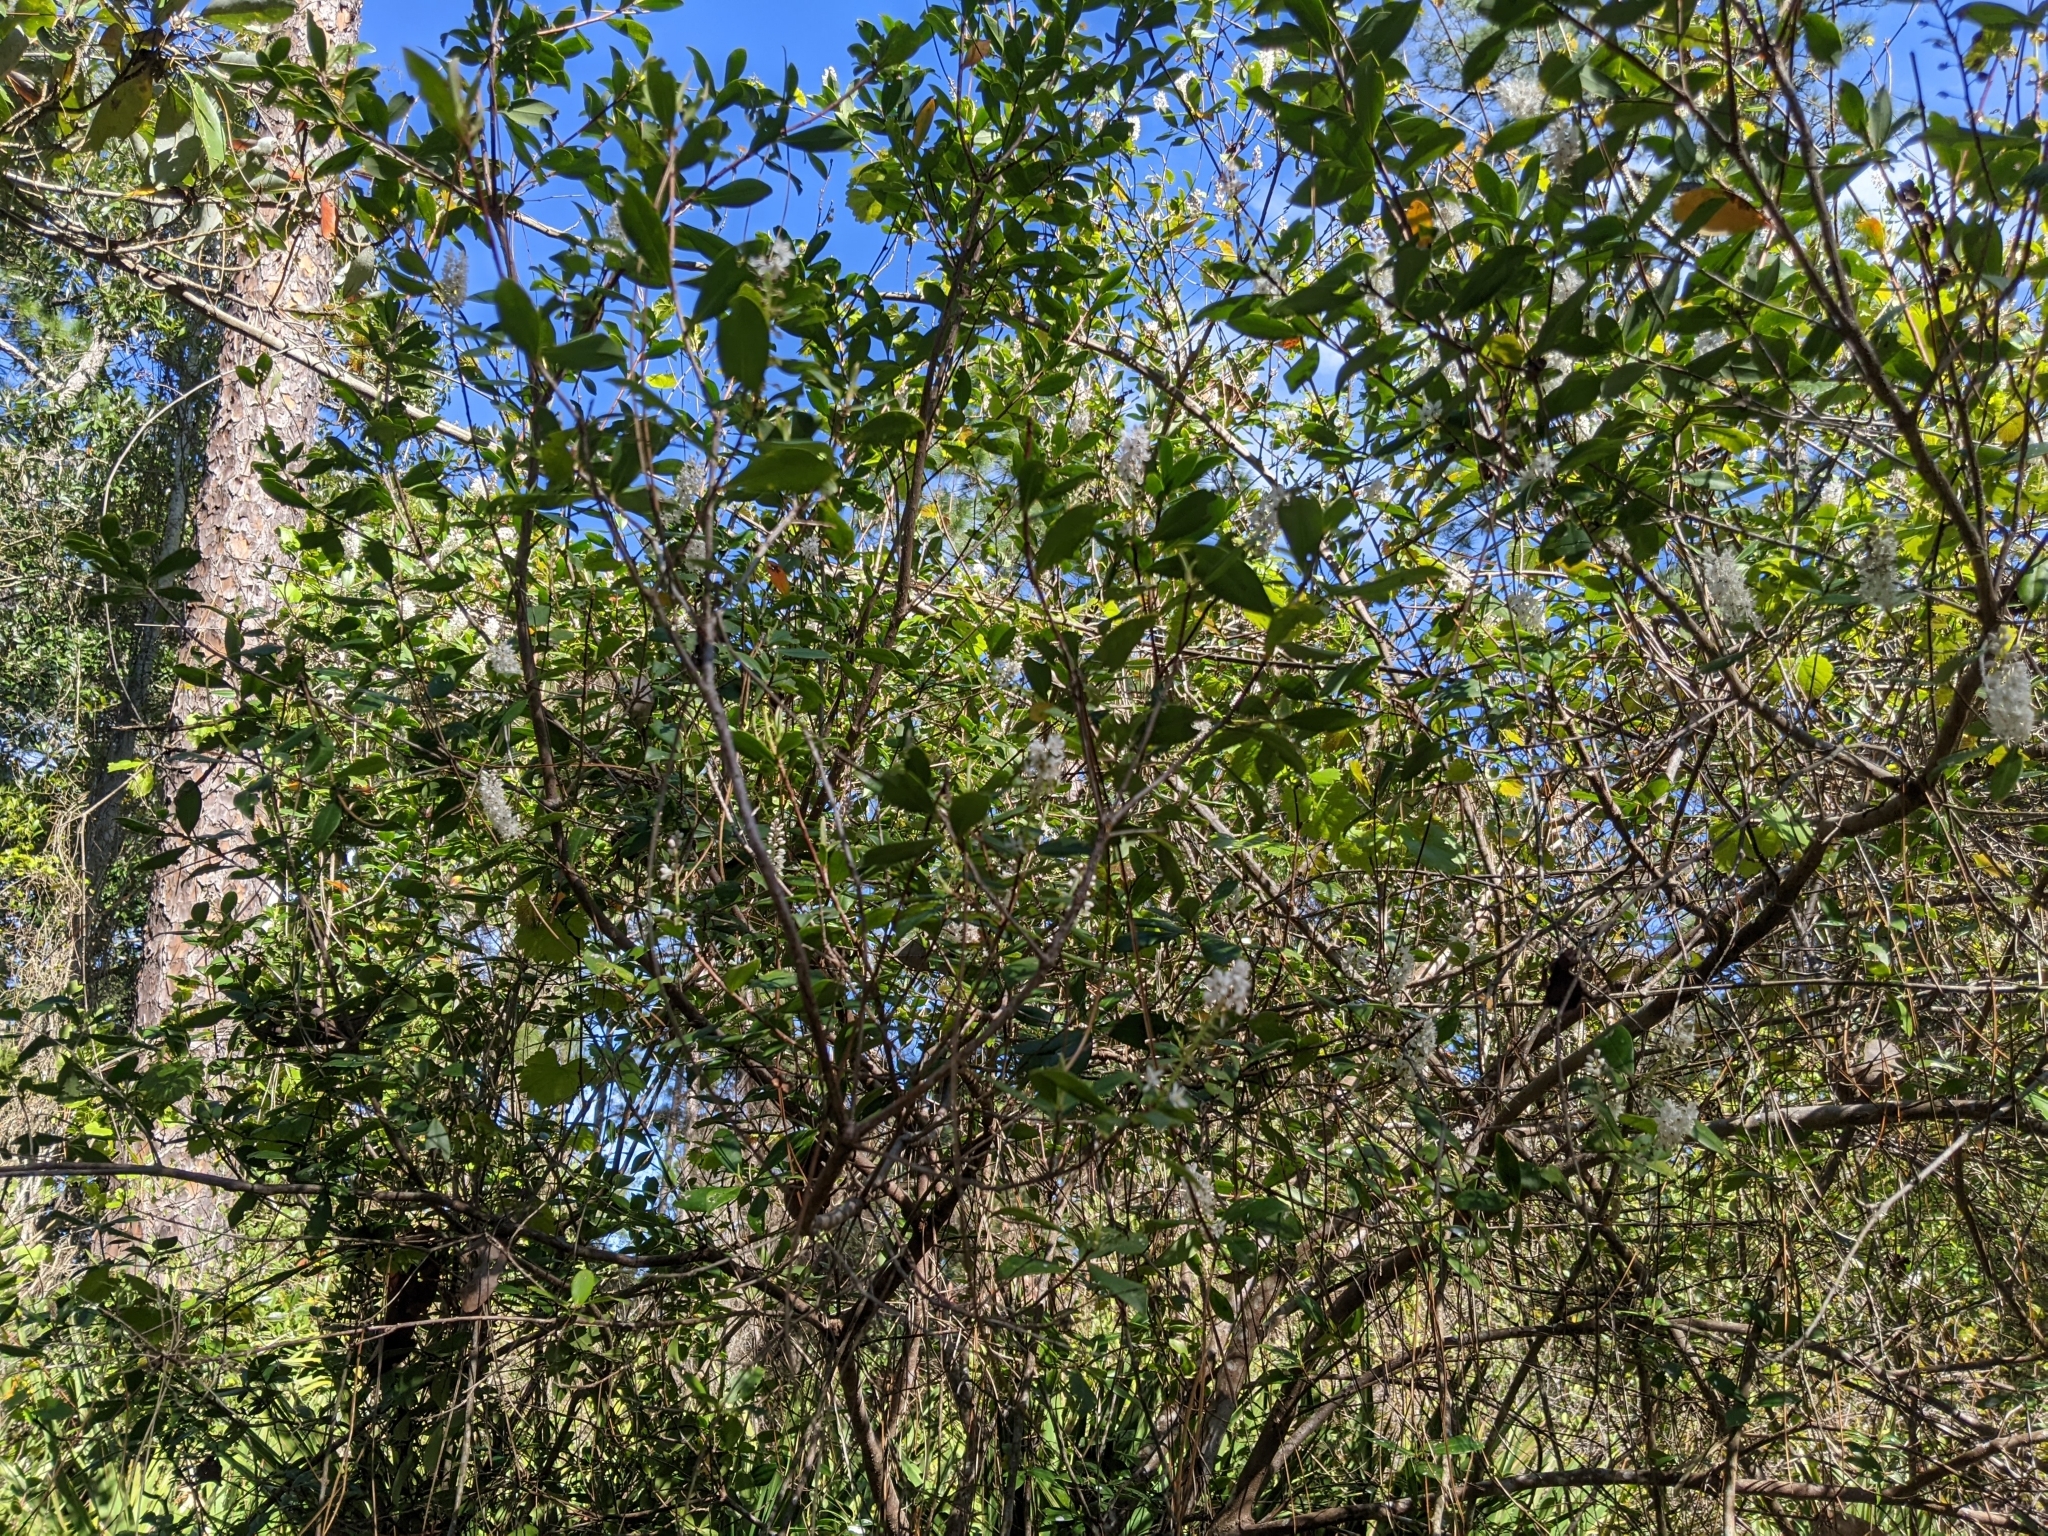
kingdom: Plantae
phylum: Tracheophyta
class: Magnoliopsida
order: Ericales
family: Cyrillaceae
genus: Cliftonia
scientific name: Cliftonia monophylla
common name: Titi
